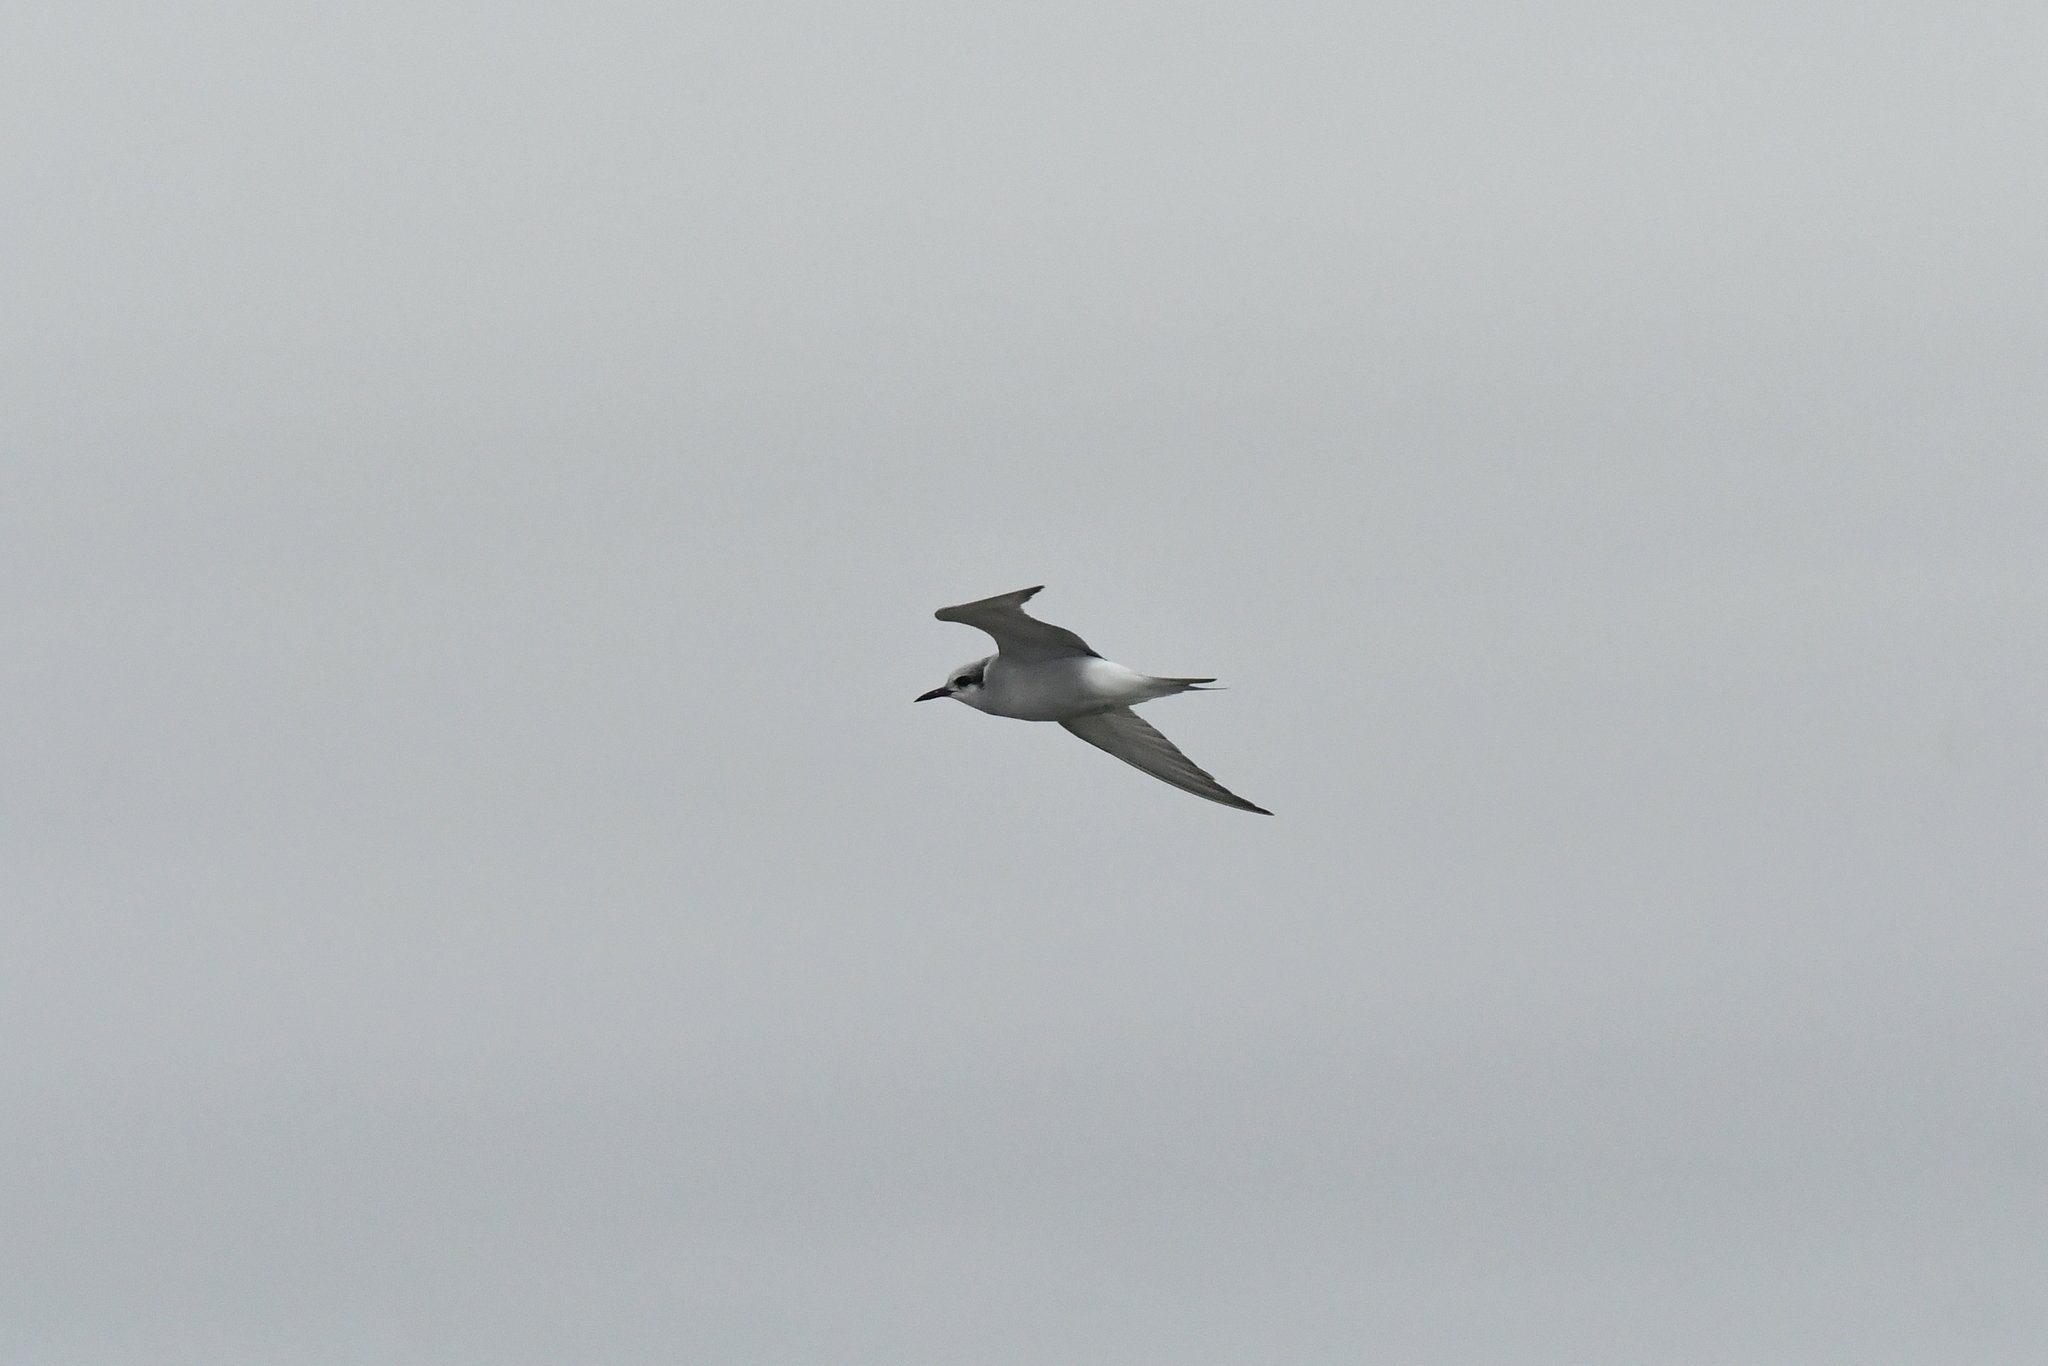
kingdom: Animalia
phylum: Chordata
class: Aves
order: Charadriiformes
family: Laridae
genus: Chlidonias
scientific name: Chlidonias albostriatus
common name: Black-fronted tern
